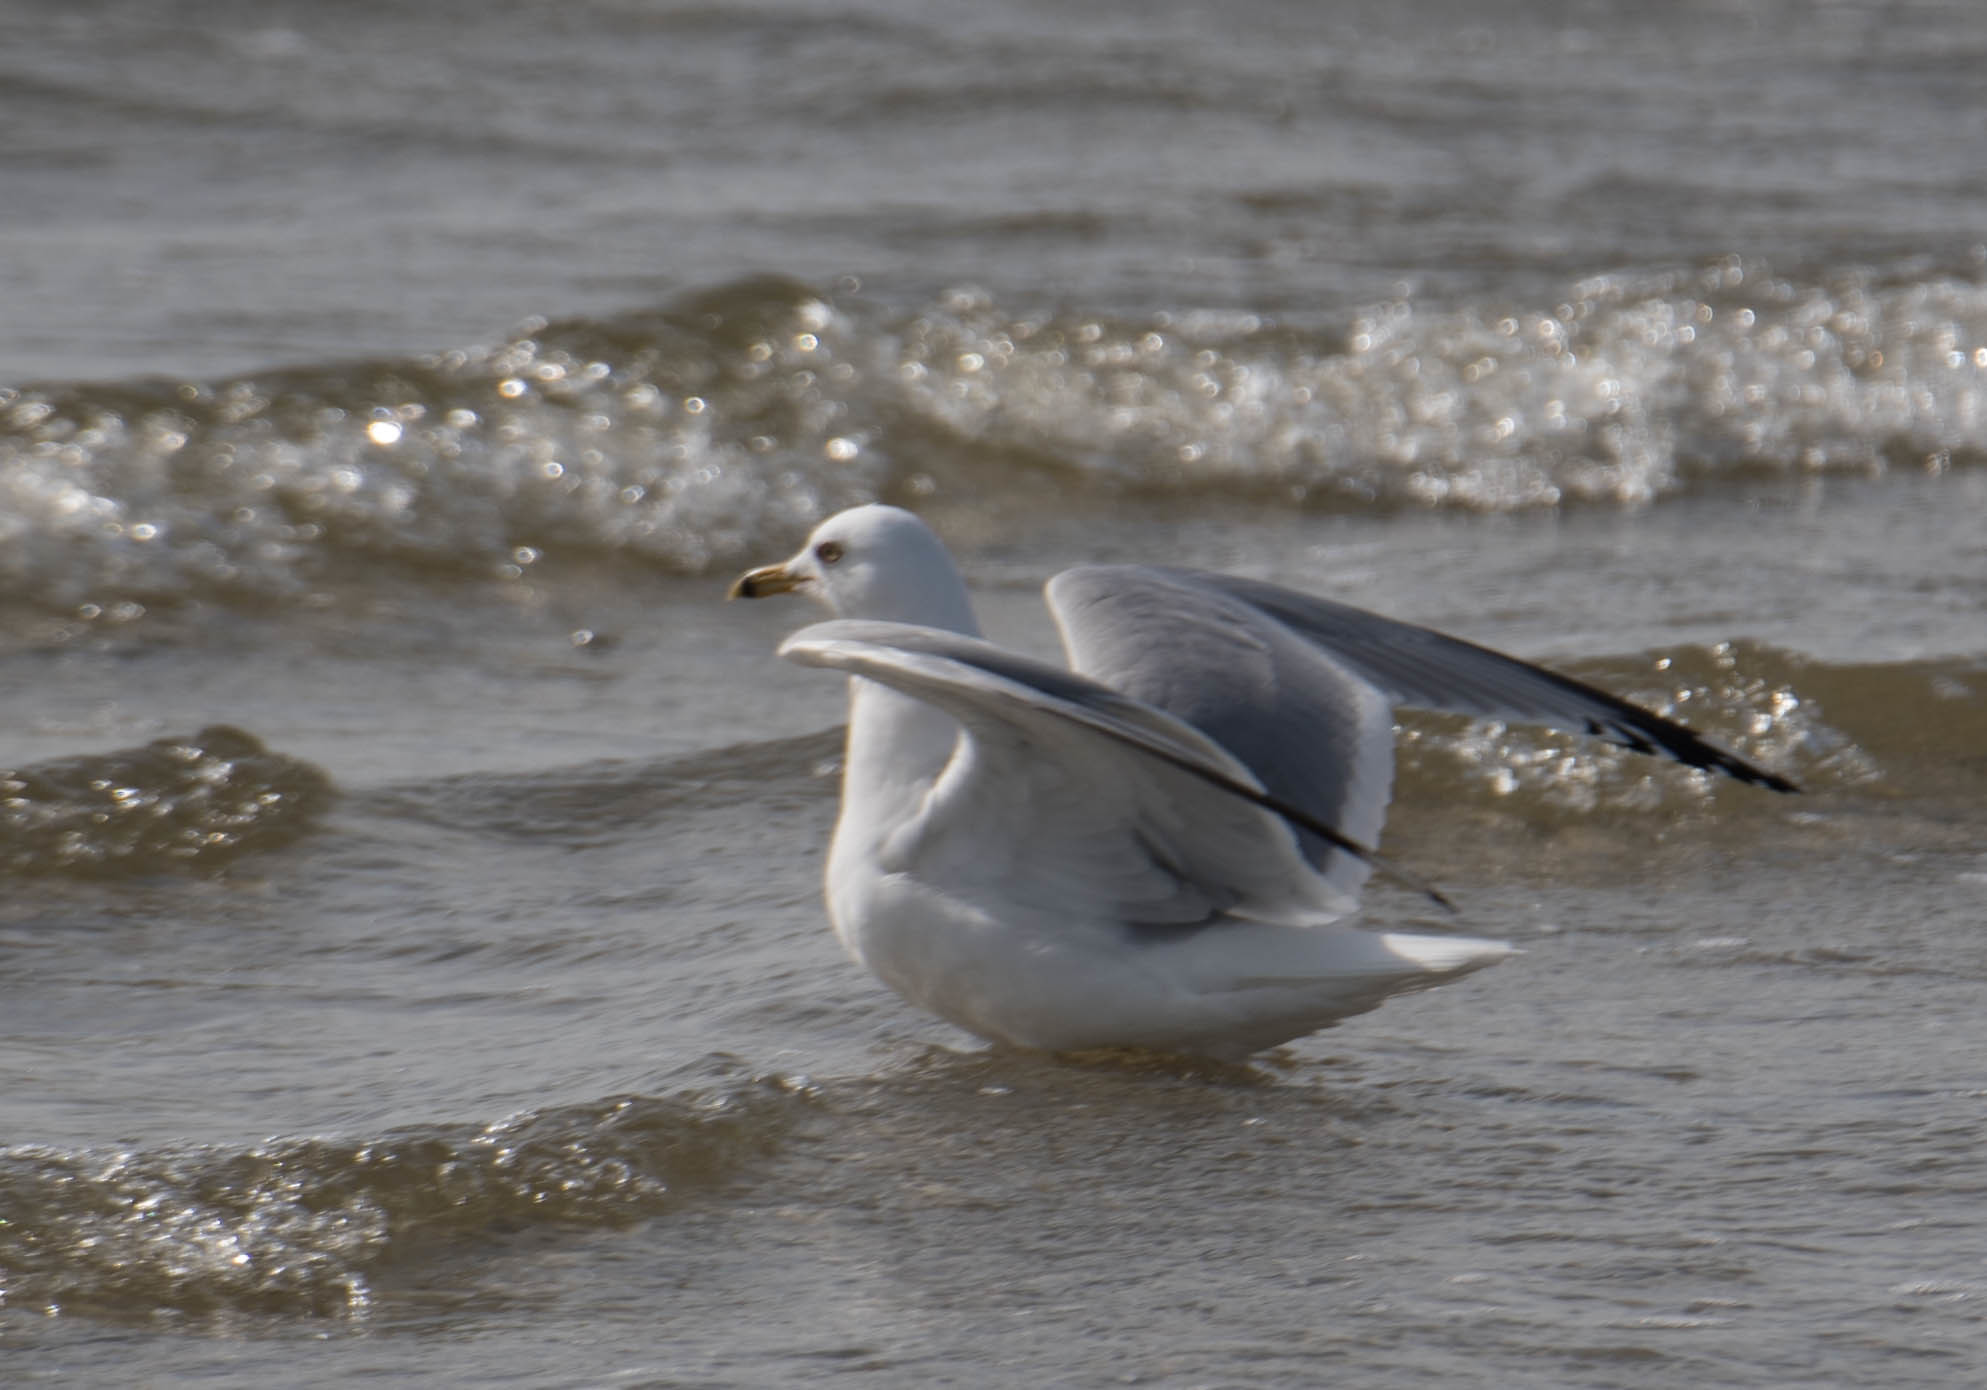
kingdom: Animalia
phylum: Chordata
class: Aves
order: Charadriiformes
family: Laridae
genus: Larus
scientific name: Larus delawarensis
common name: Ring-billed gull
